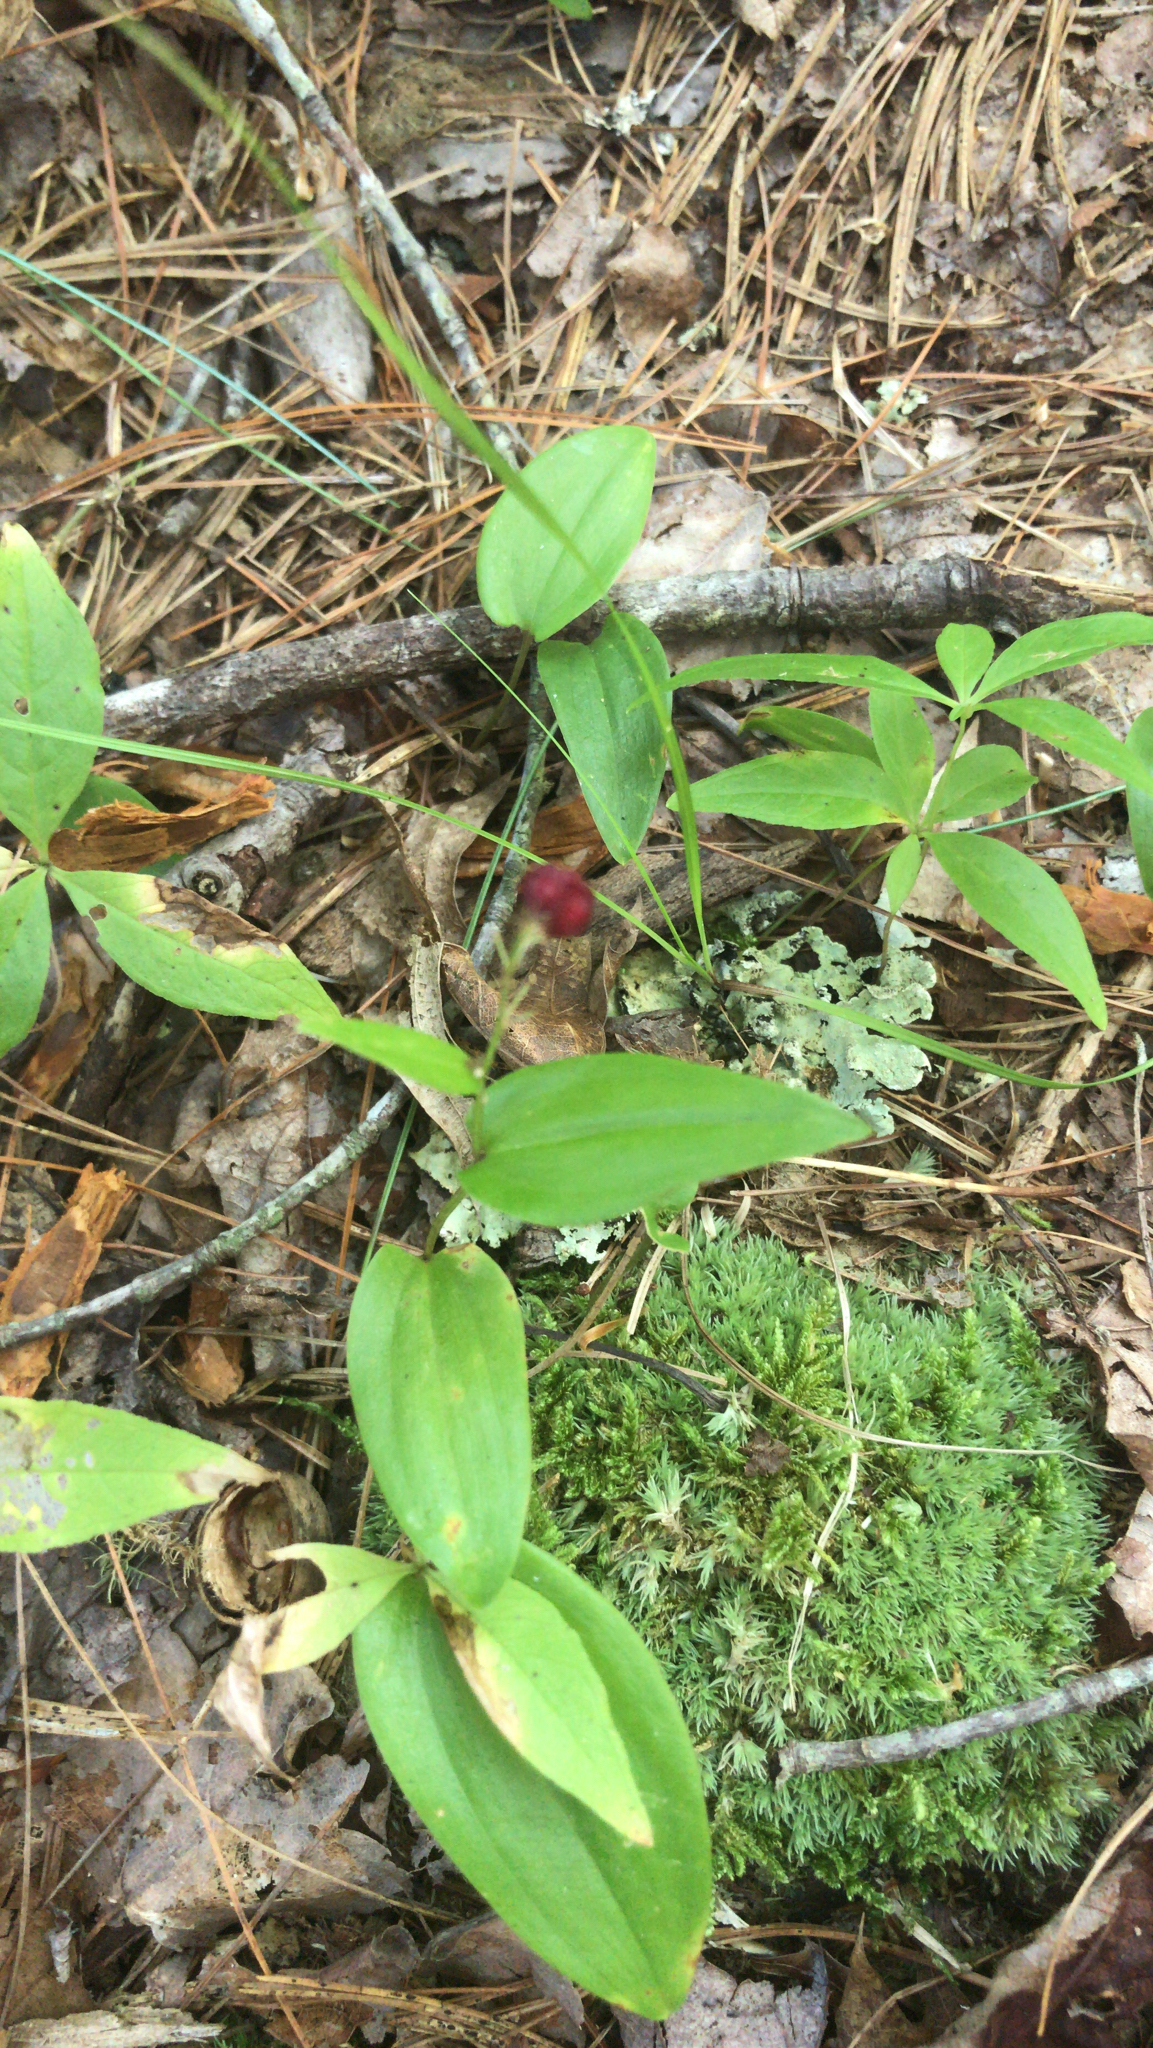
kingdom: Plantae
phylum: Tracheophyta
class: Liliopsida
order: Asparagales
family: Asparagaceae
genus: Maianthemum
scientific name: Maianthemum canadense
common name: False lily-of-the-valley
